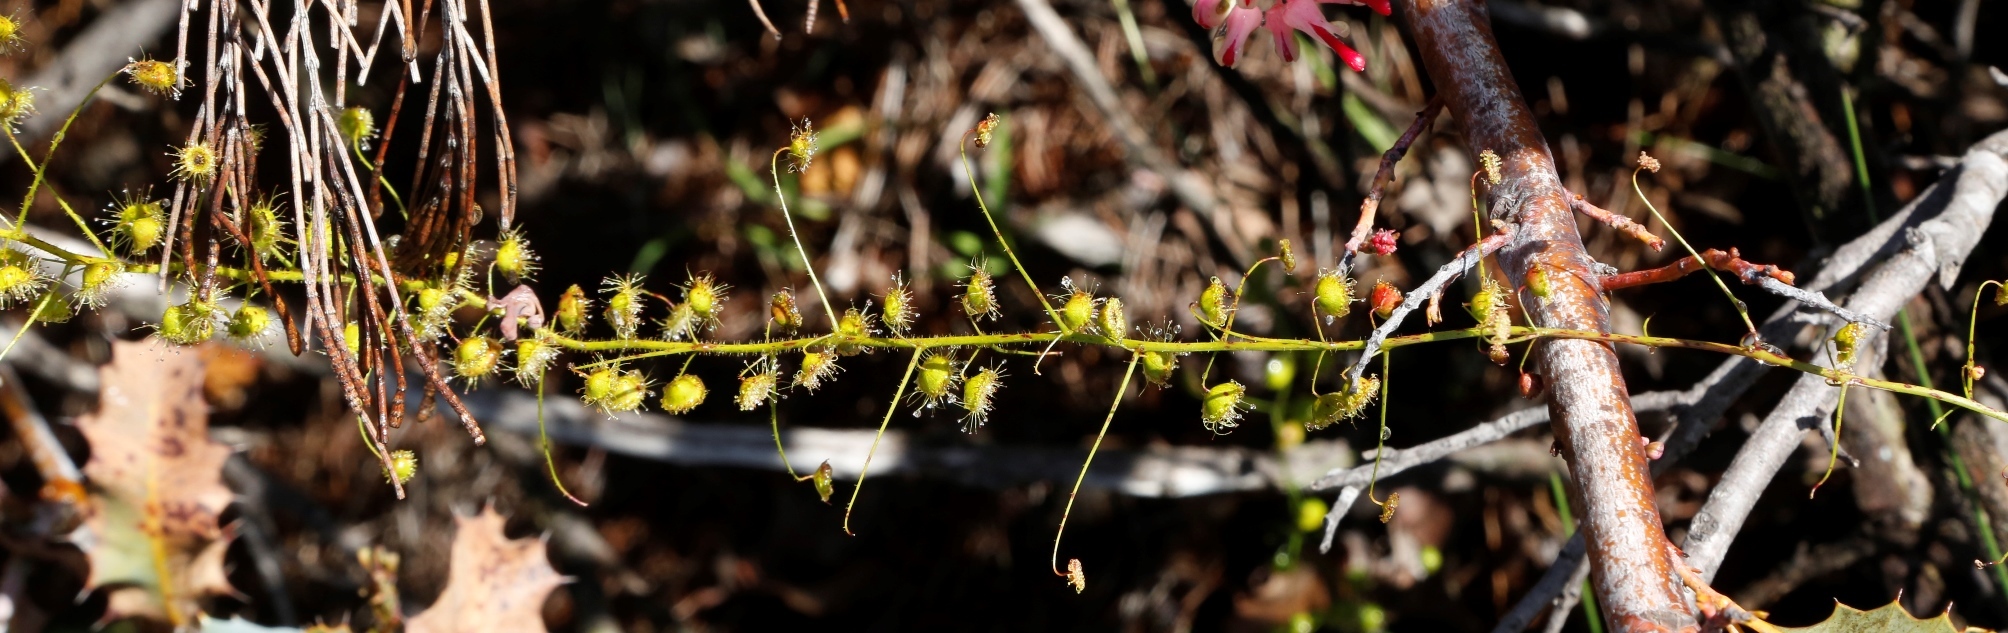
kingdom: Plantae
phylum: Tracheophyta
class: Magnoliopsida
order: Caryophyllales
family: Droseraceae
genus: Drosera
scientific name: Drosera macrantha
